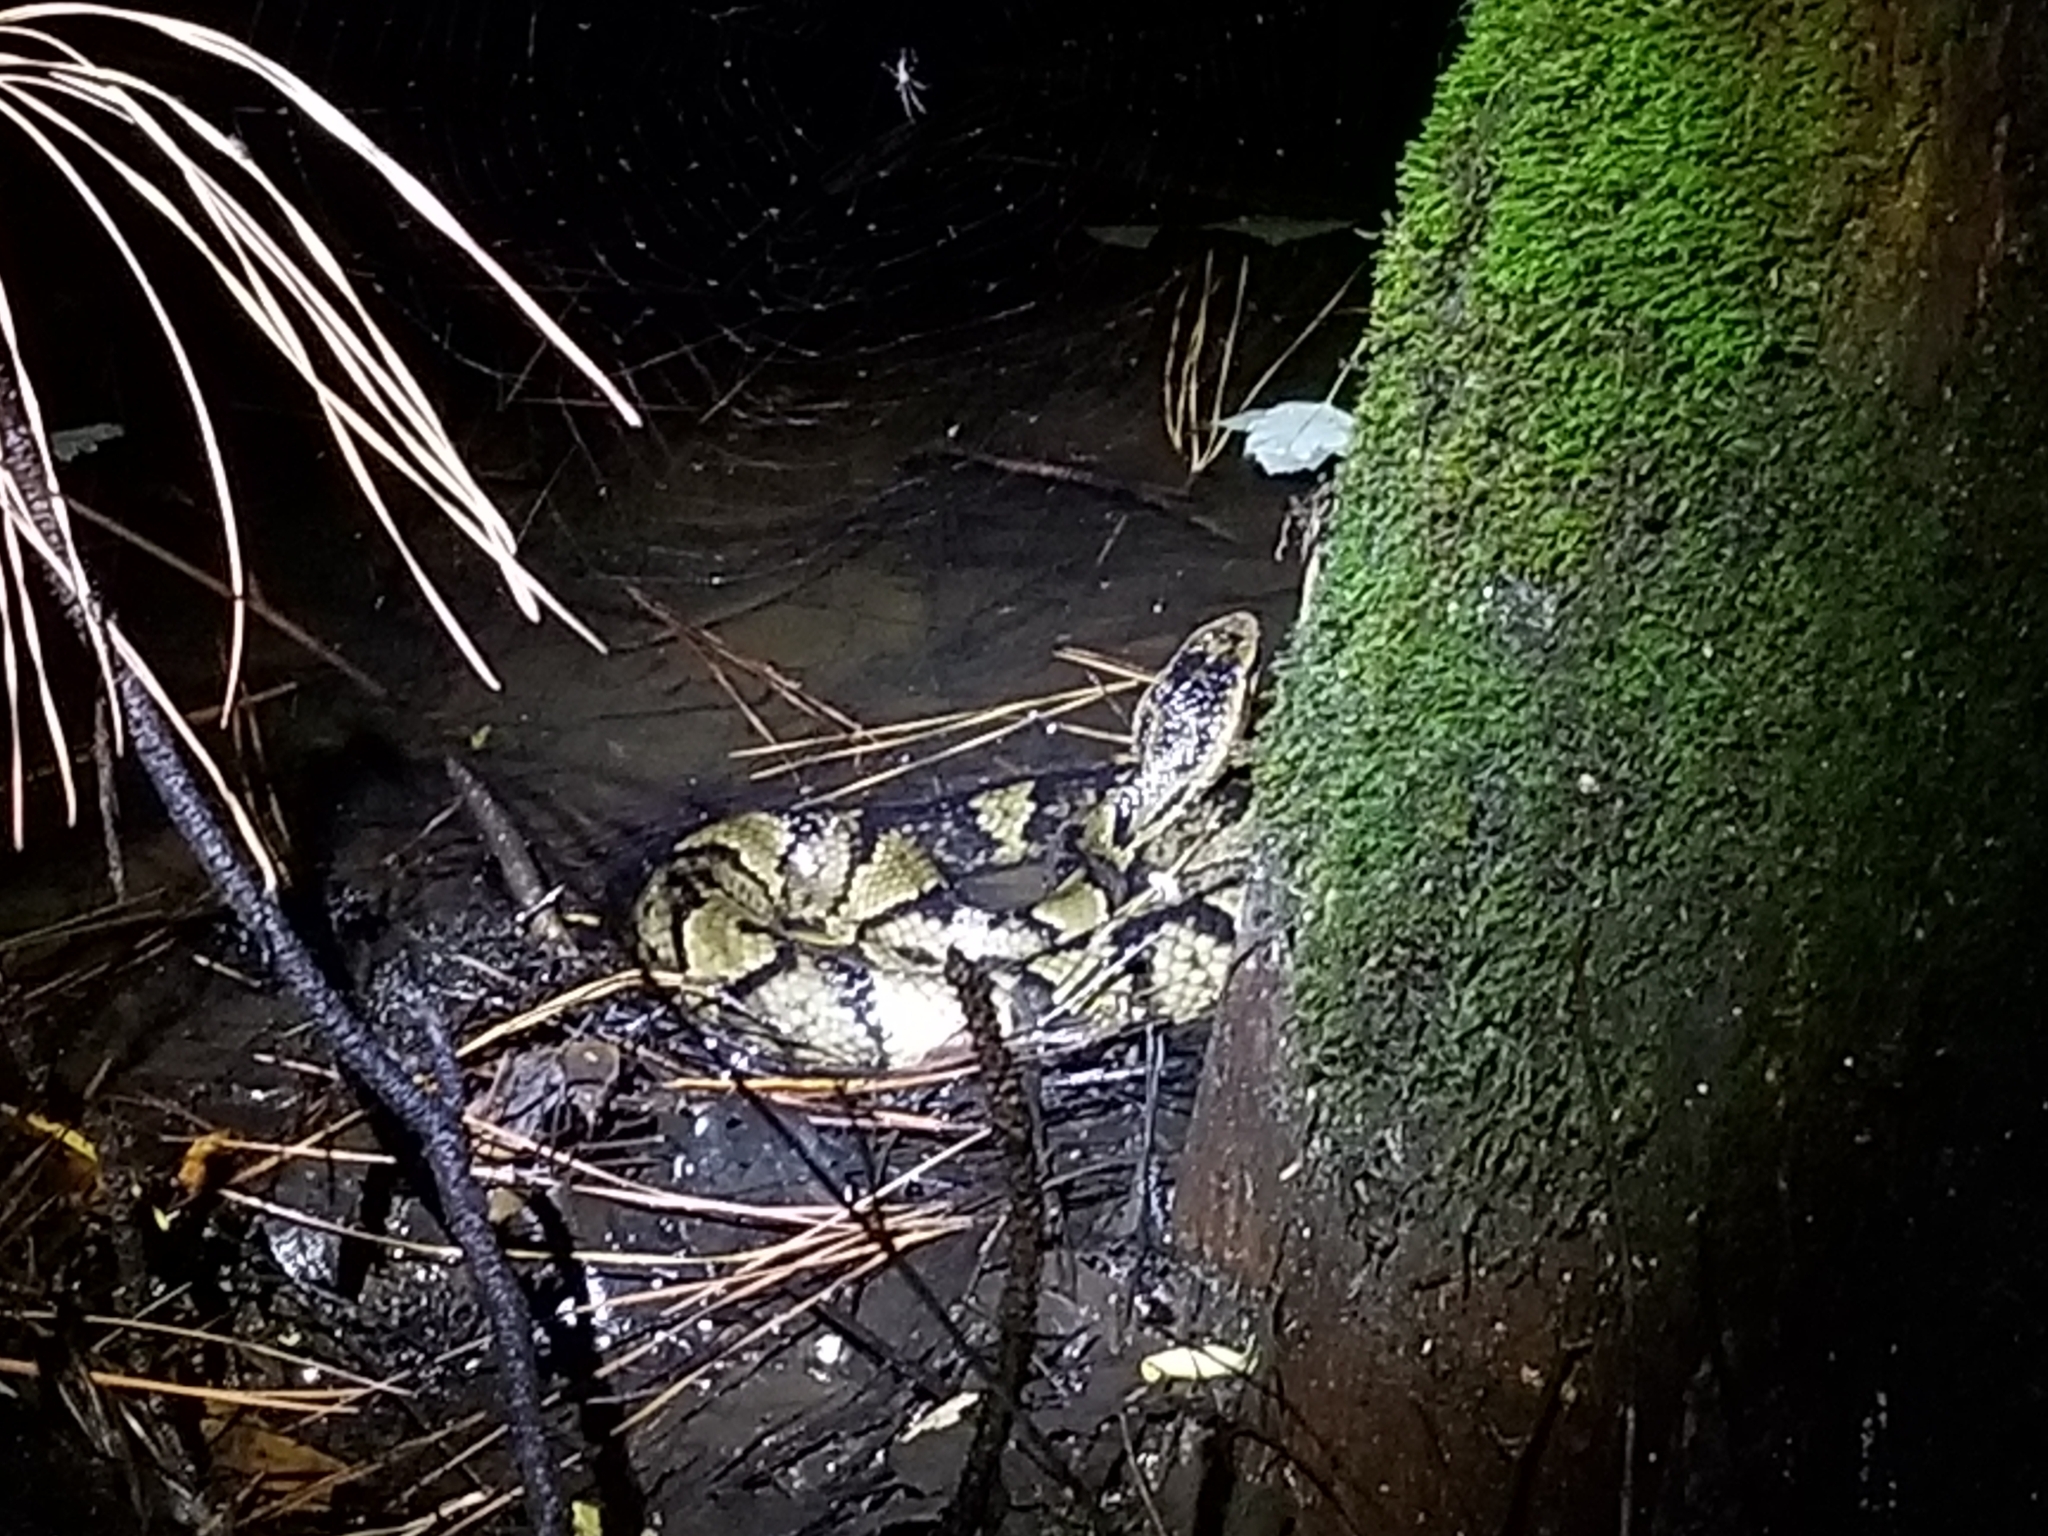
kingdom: Animalia
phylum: Chordata
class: Squamata
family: Viperidae
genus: Agkistrodon
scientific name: Agkistrodon piscivorus
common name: Cottonmouth
